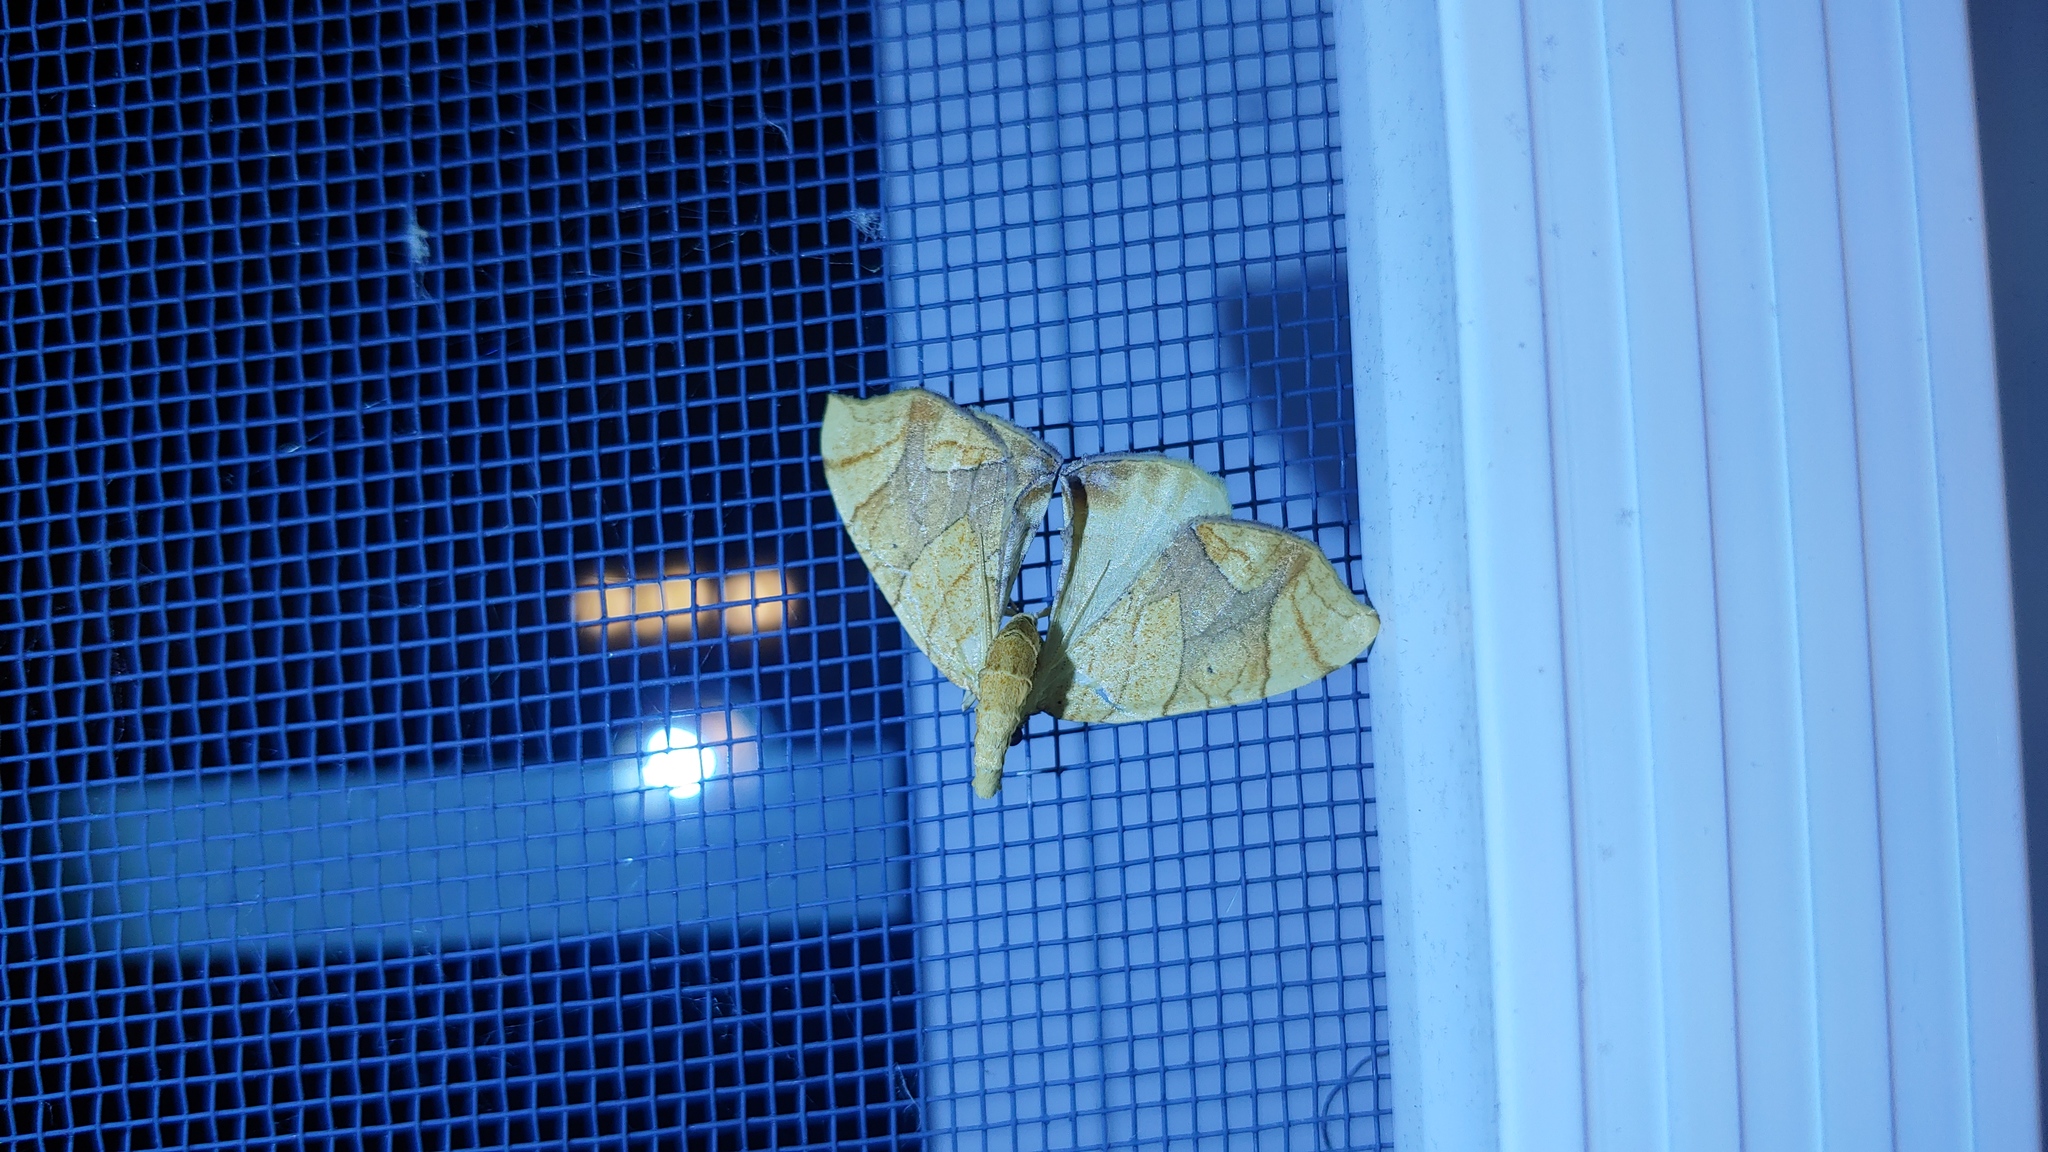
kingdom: Animalia
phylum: Arthropoda
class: Insecta
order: Lepidoptera
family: Geometridae
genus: Eulithis
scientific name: Eulithis
